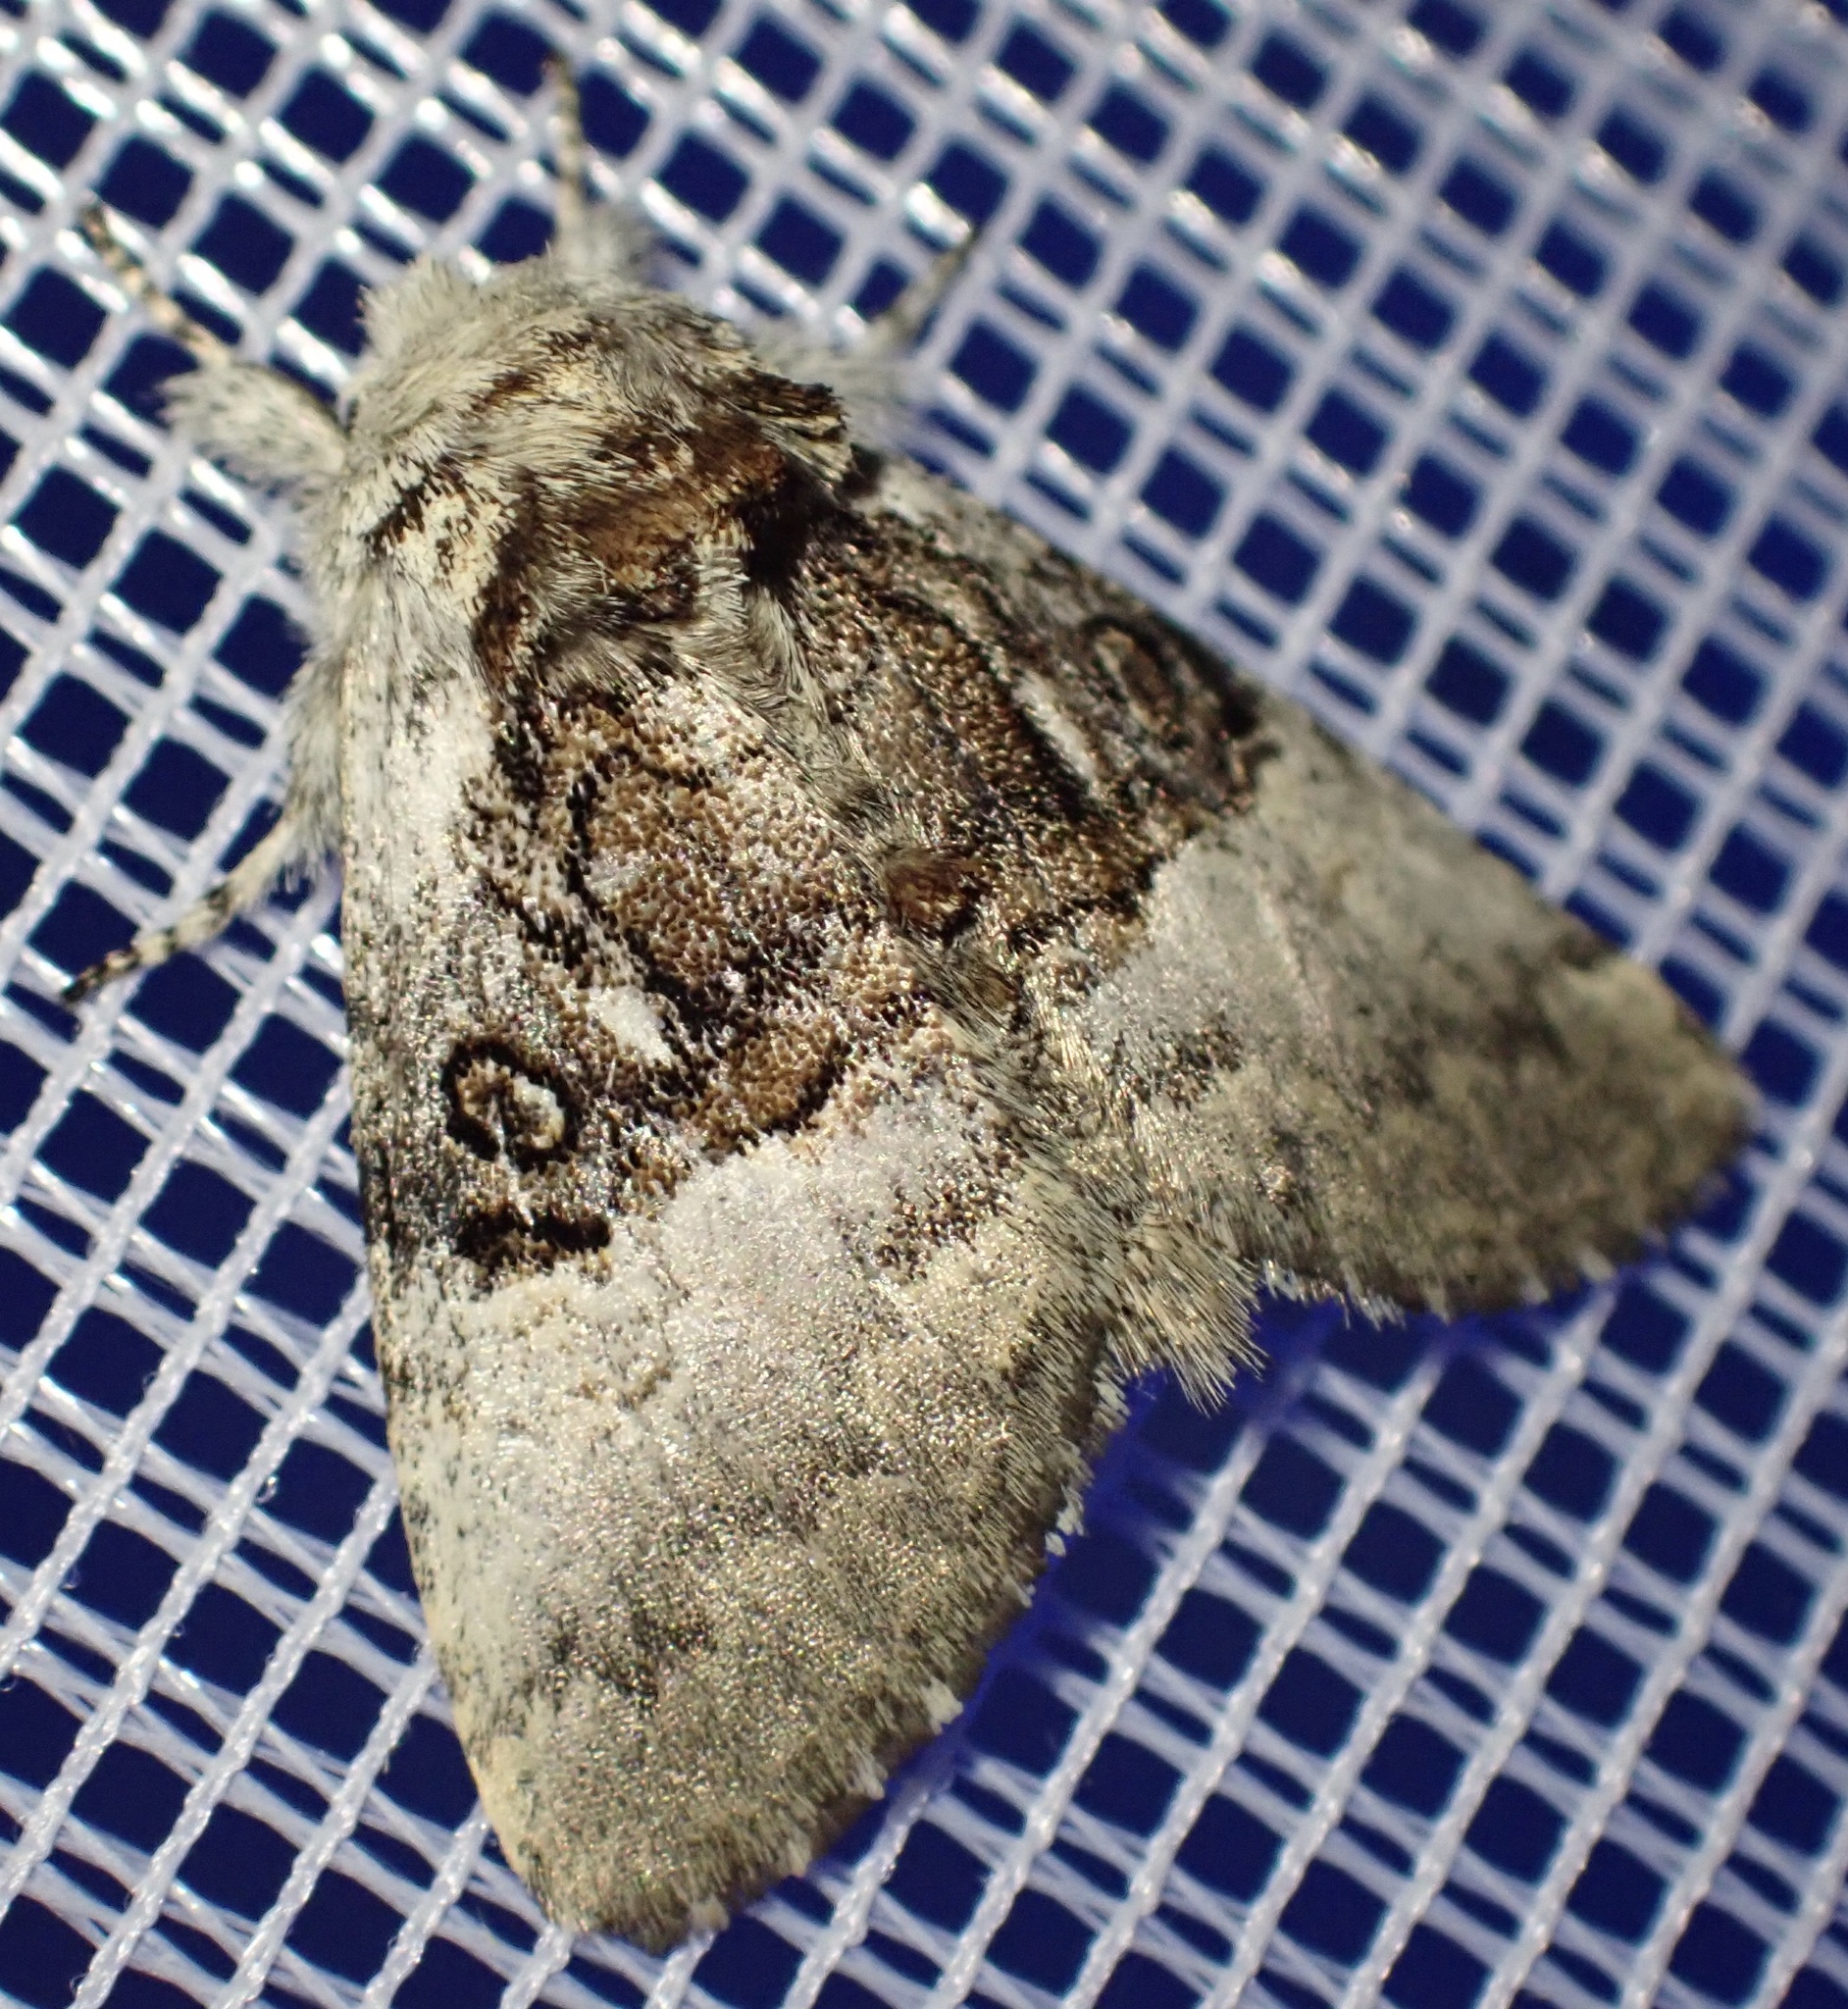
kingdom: Animalia
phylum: Arthropoda
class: Insecta
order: Lepidoptera
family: Noctuidae
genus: Colocasia
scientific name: Colocasia coryli
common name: Nut-tree tussock
